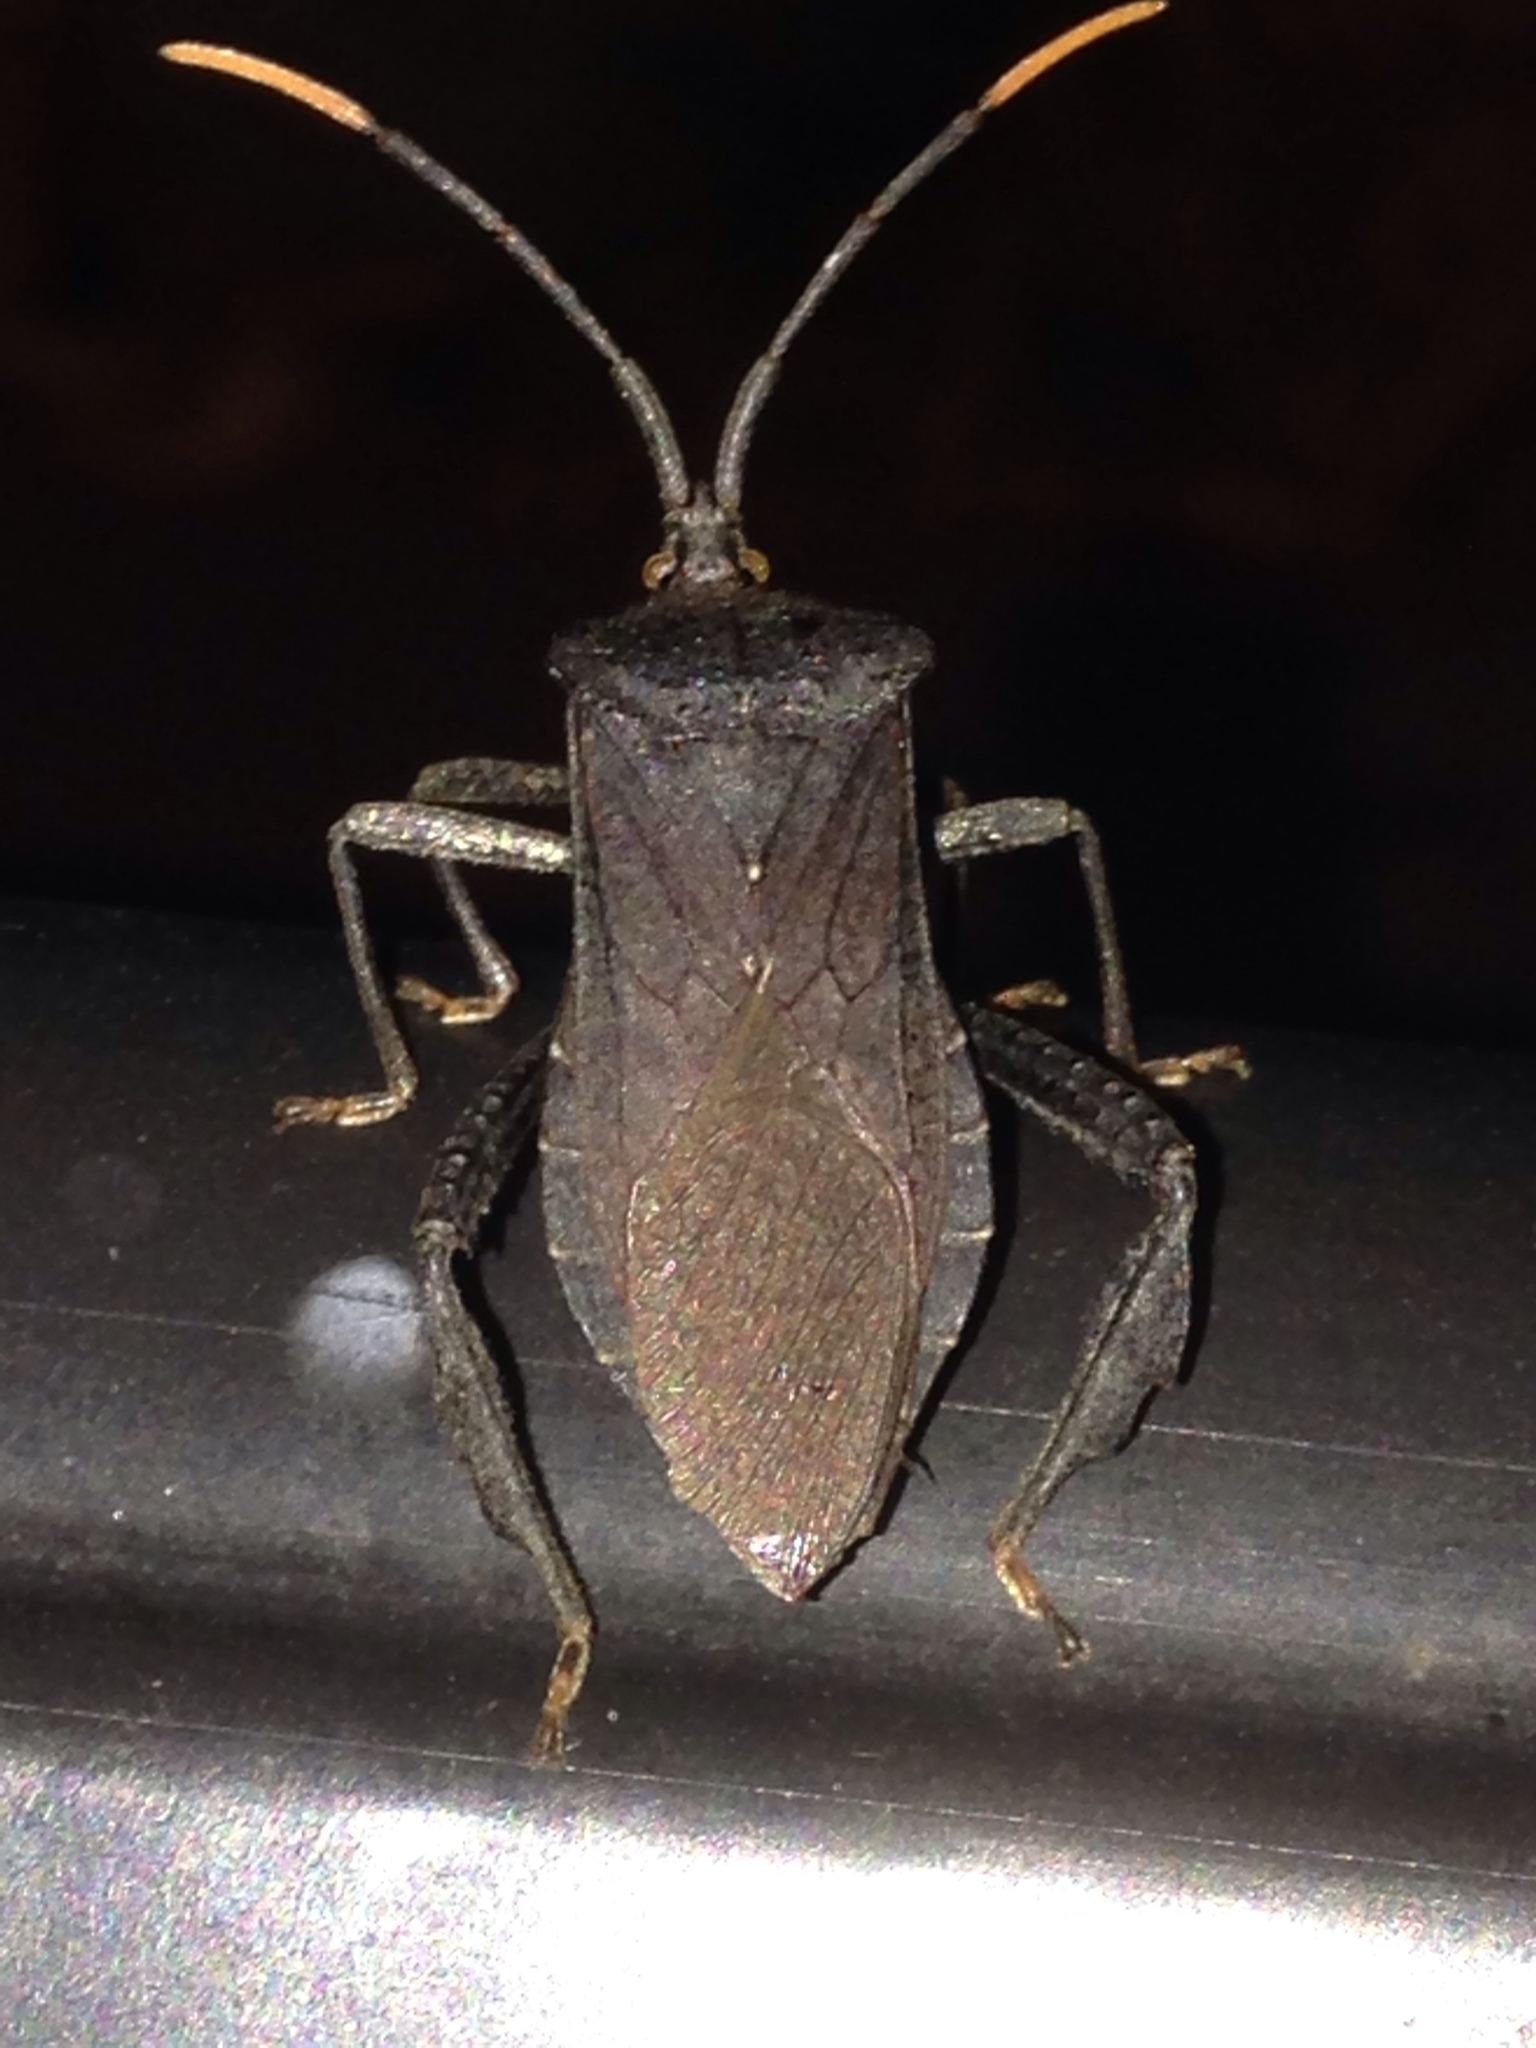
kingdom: Animalia
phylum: Arthropoda
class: Insecta
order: Hemiptera
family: Coreidae
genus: Acanthocephala
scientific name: Acanthocephala terminalis
